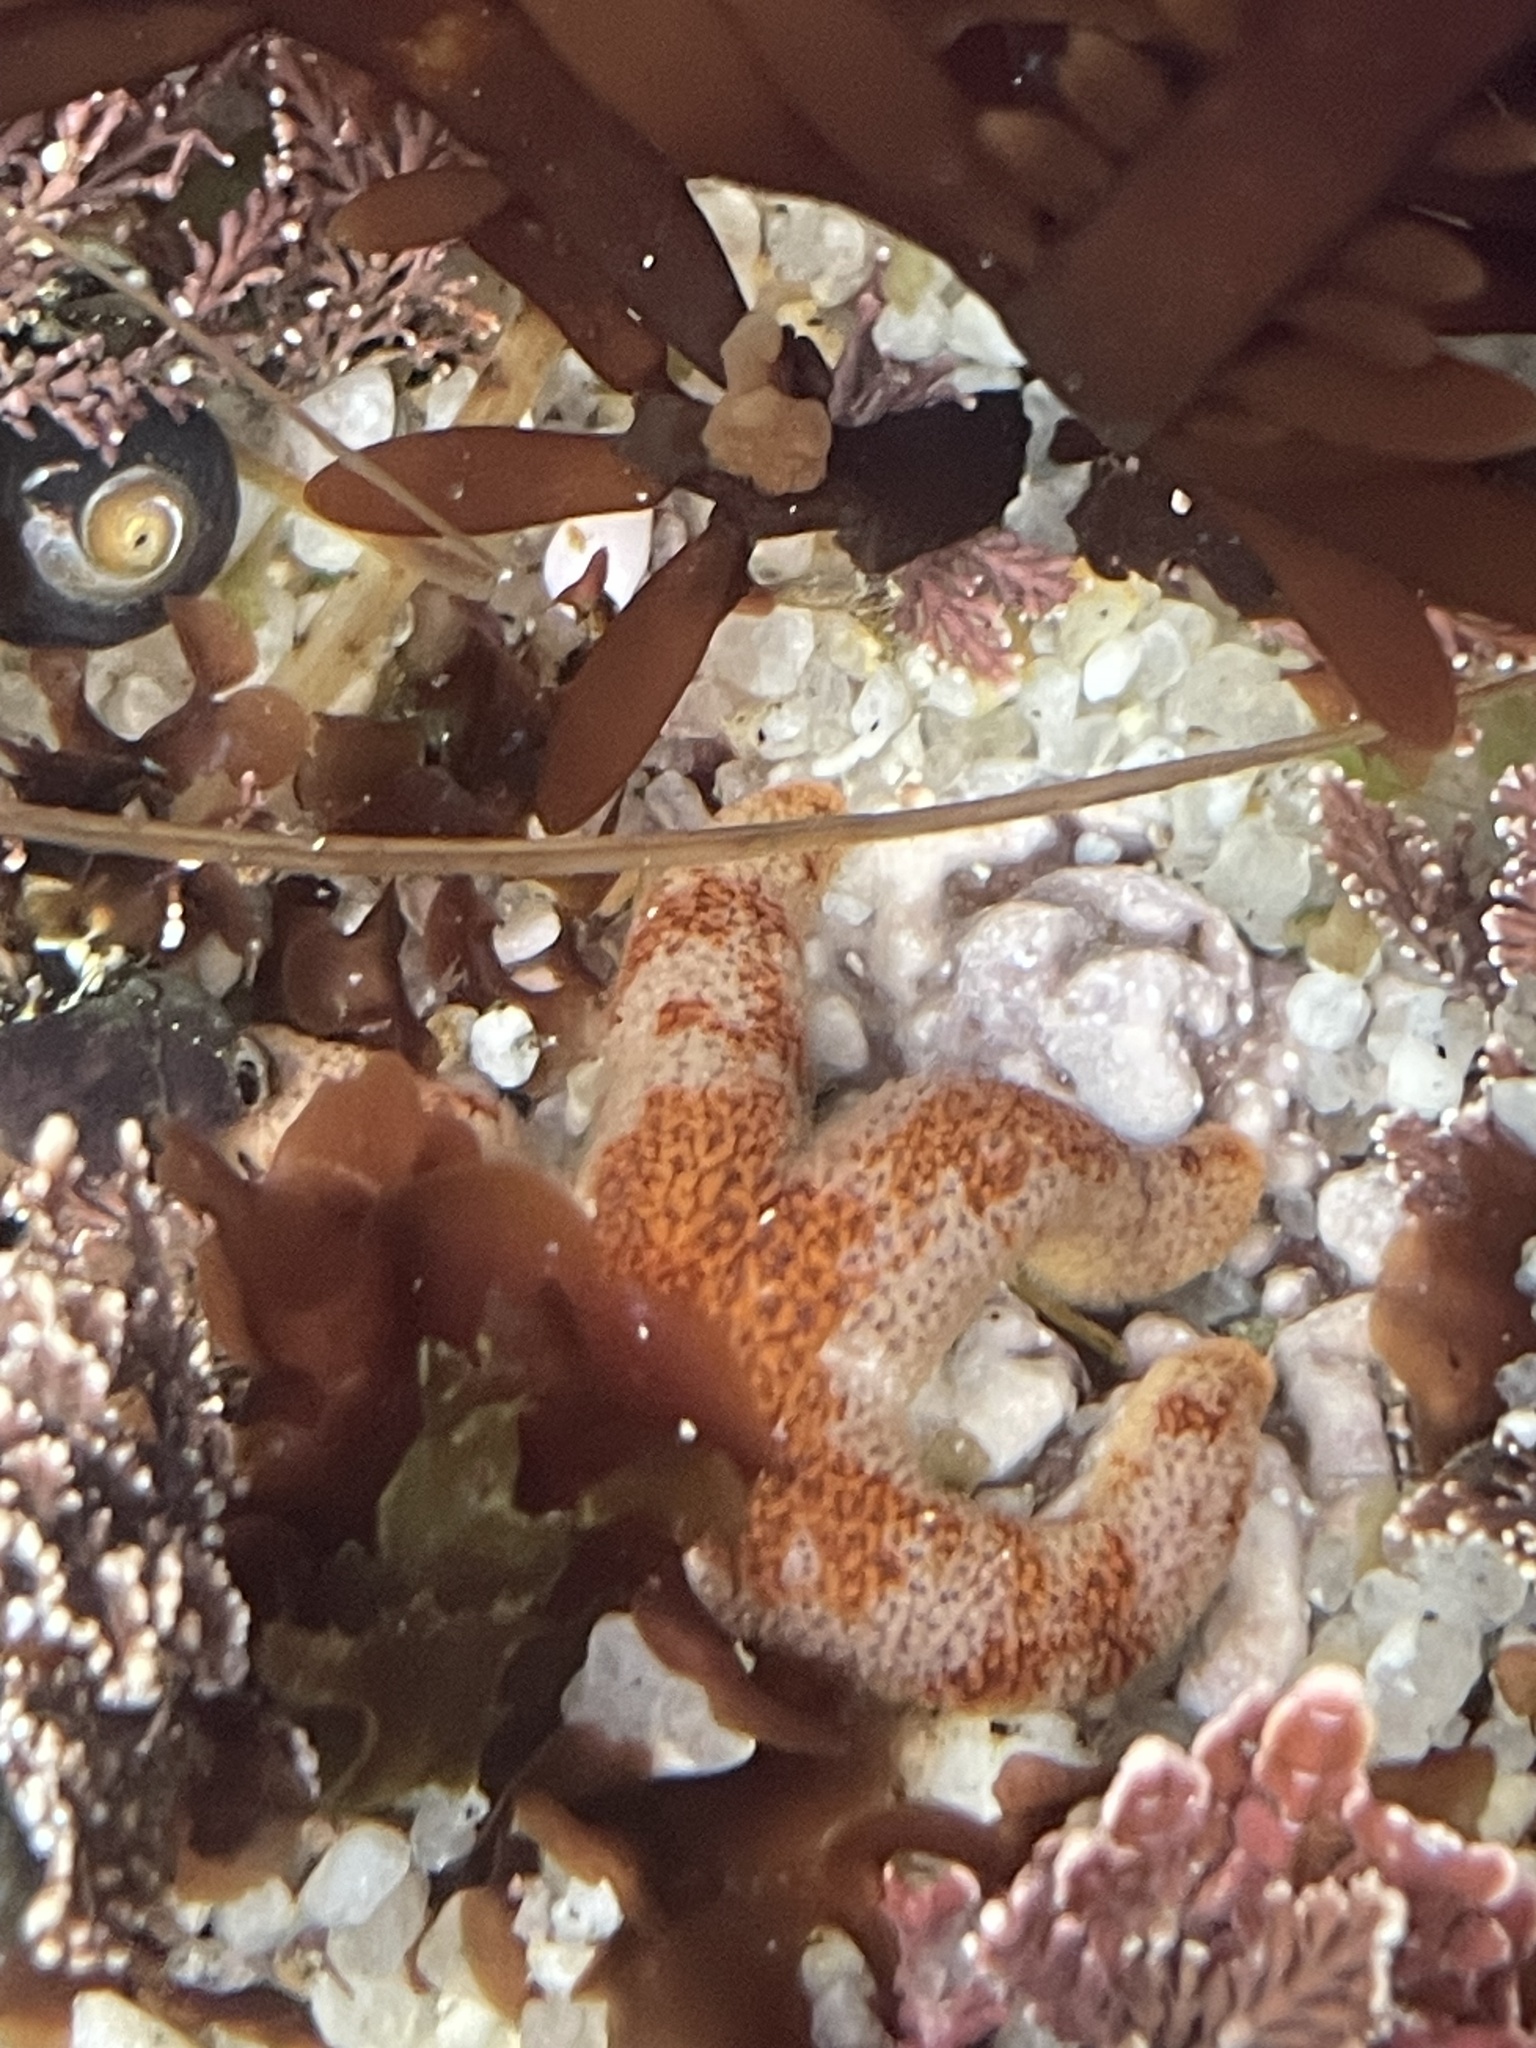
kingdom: Animalia
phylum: Echinodermata
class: Asteroidea
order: Spinulosida
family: Echinasteridae
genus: Henricia
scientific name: Henricia pumila
